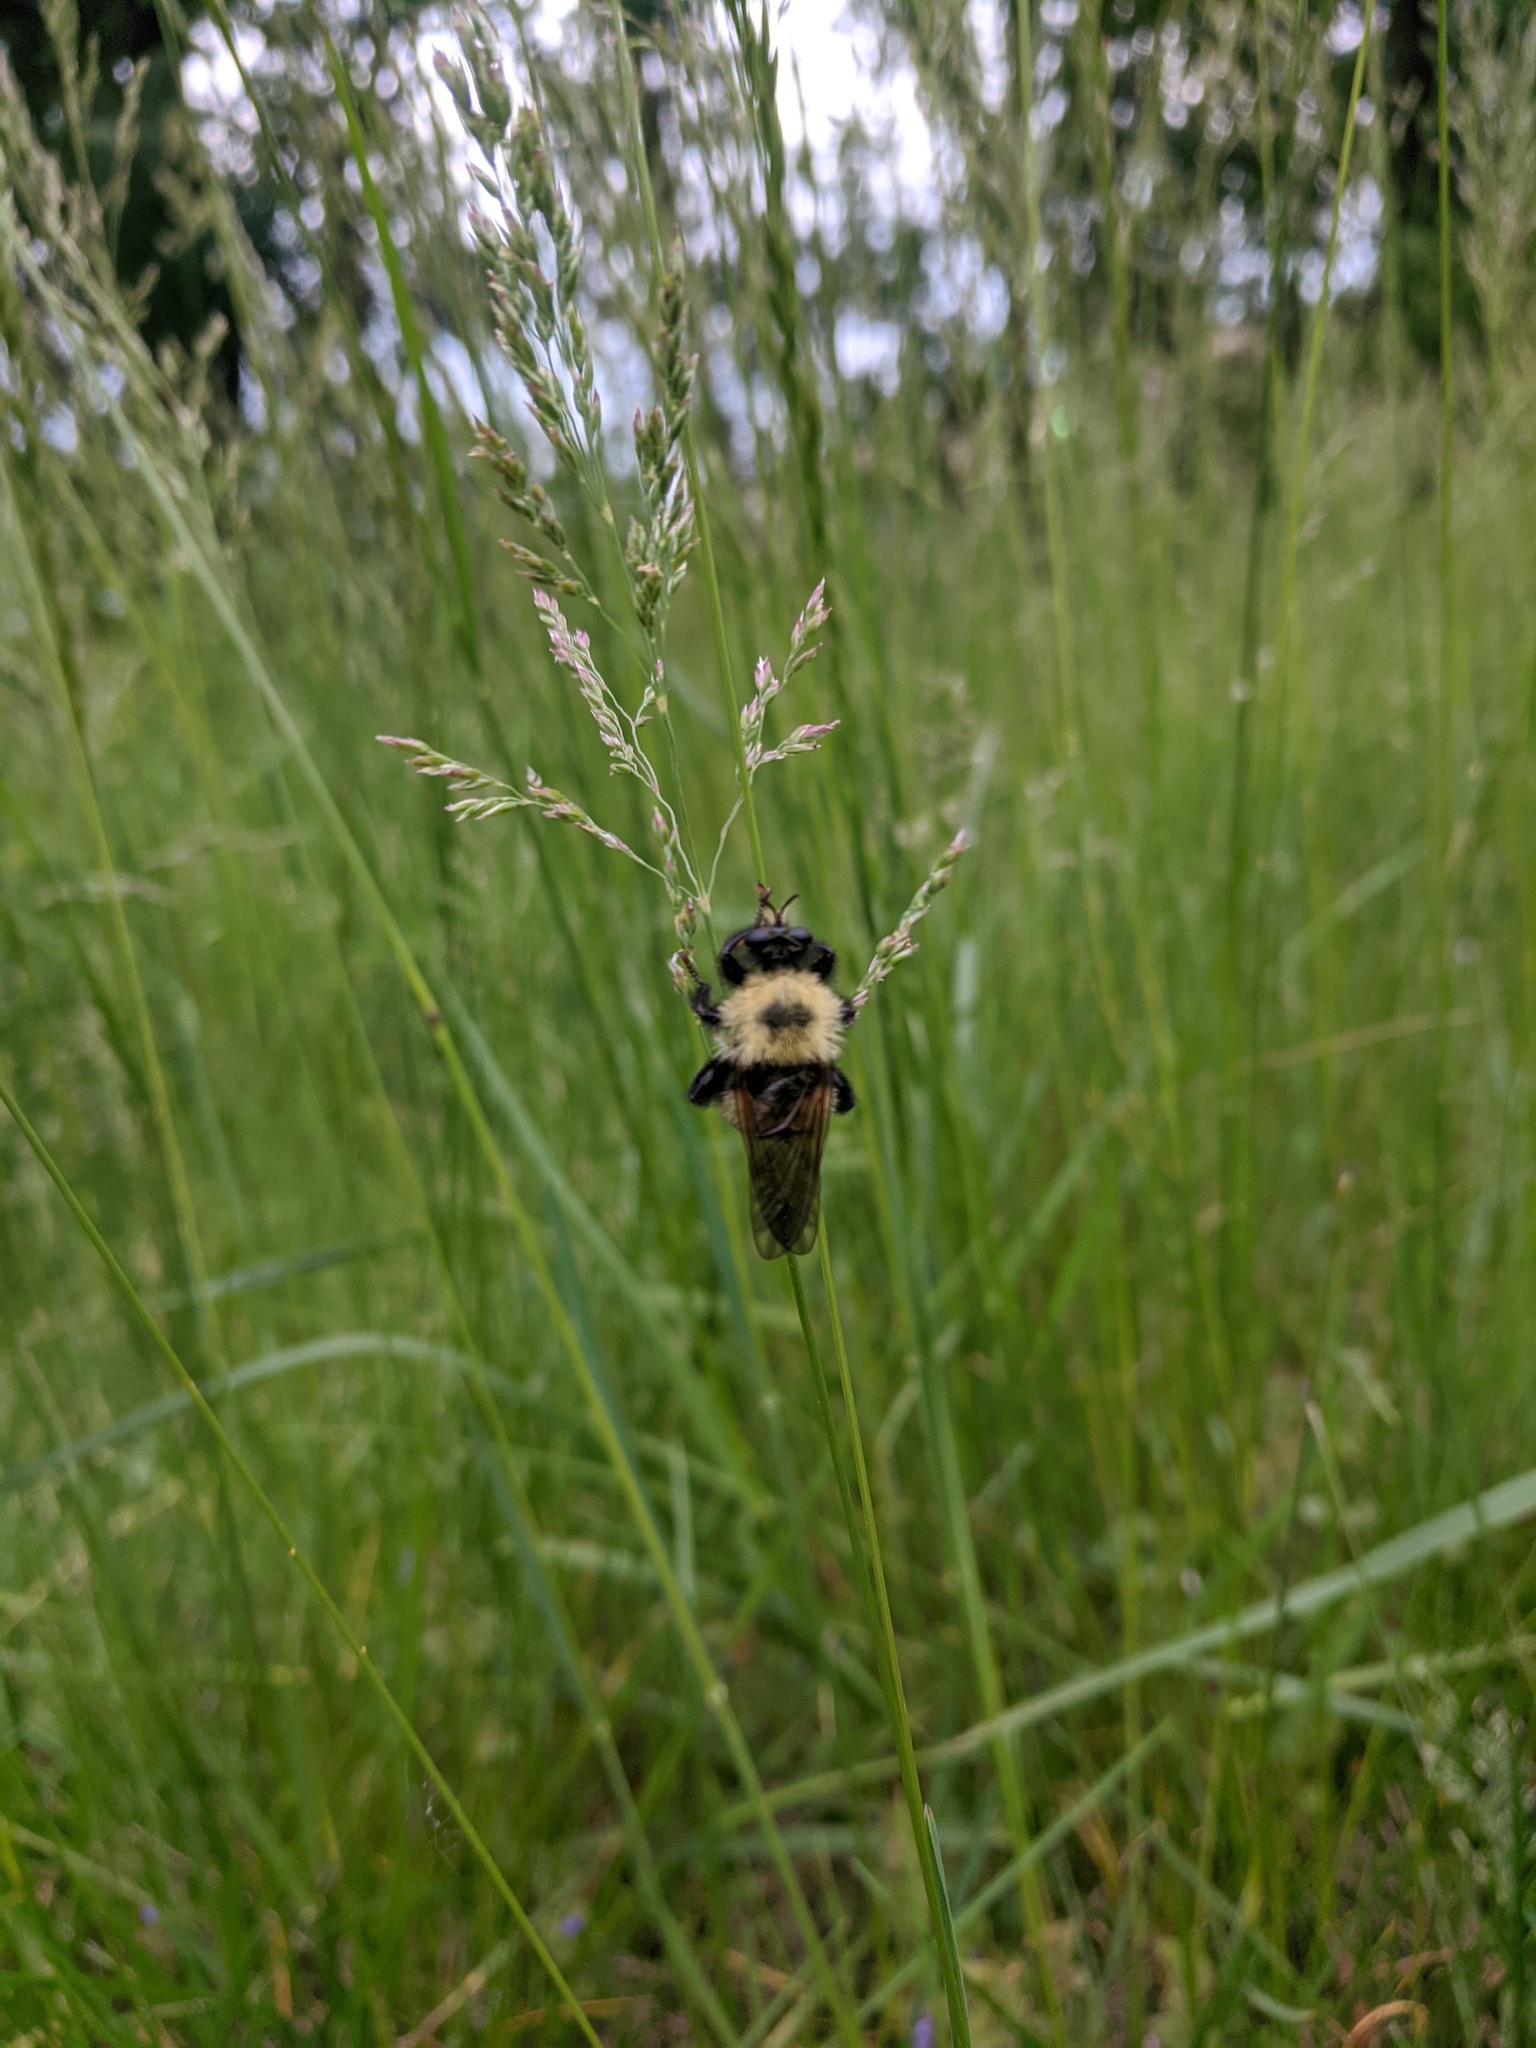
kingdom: Animalia
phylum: Arthropoda
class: Insecta
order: Diptera
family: Asilidae
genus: Laphria
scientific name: Laphria thoracica
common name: Bumble bee mimic robber fly
